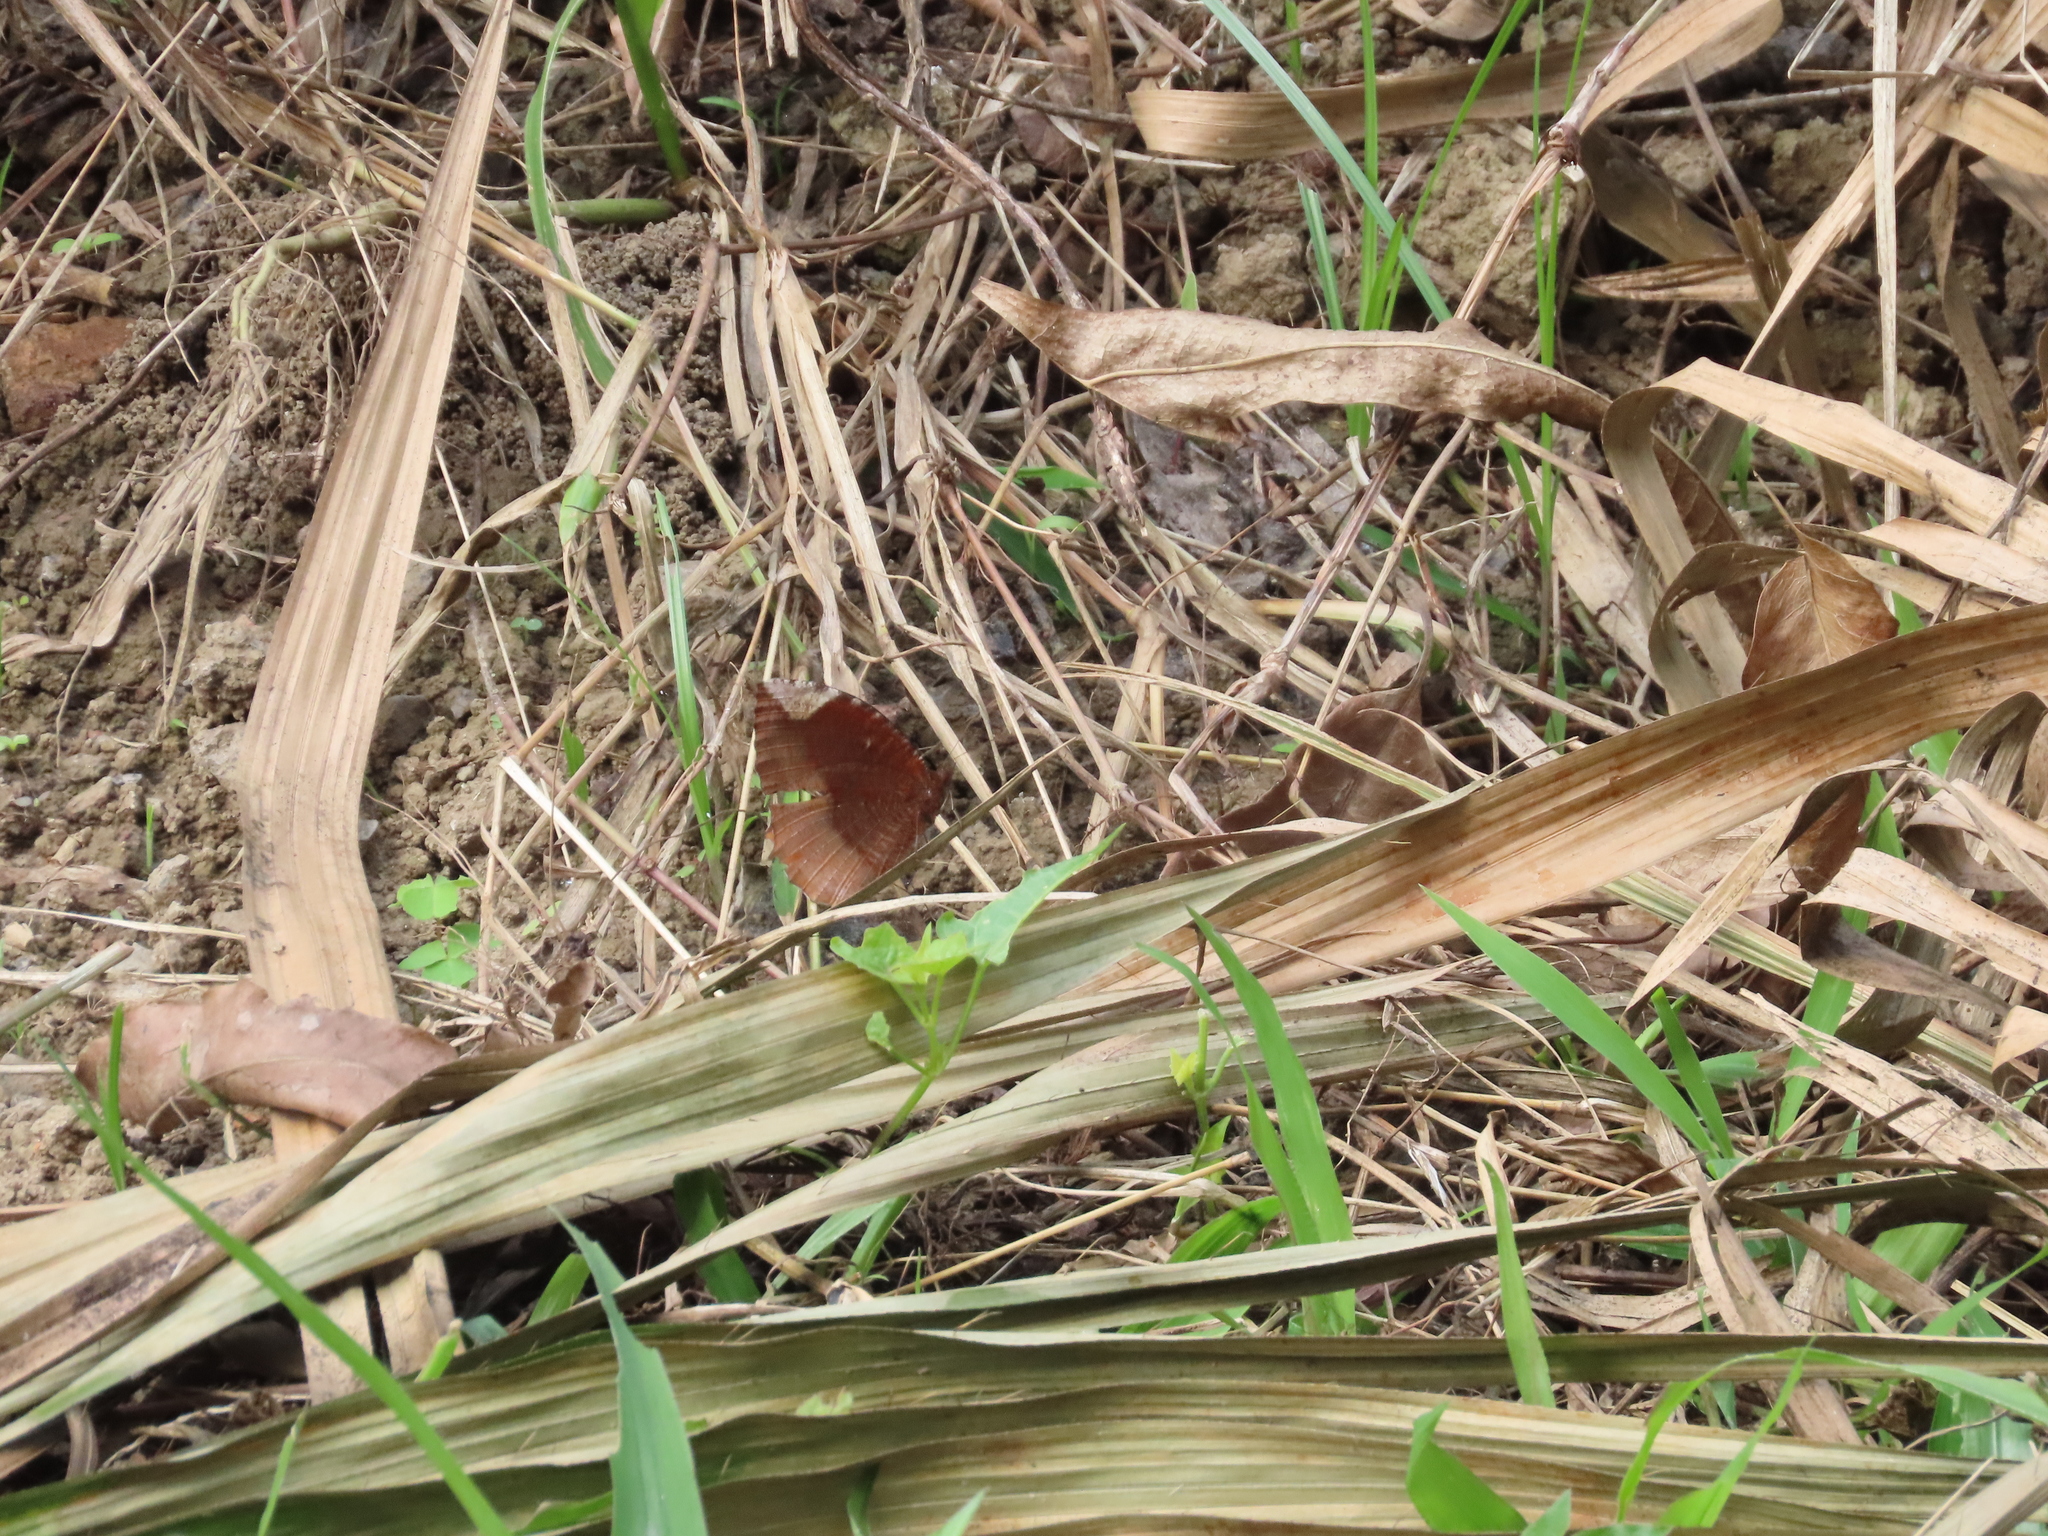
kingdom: Animalia
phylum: Arthropoda
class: Insecta
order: Lepidoptera
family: Nymphalidae
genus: Elymnias
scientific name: Elymnias hypermnestra
